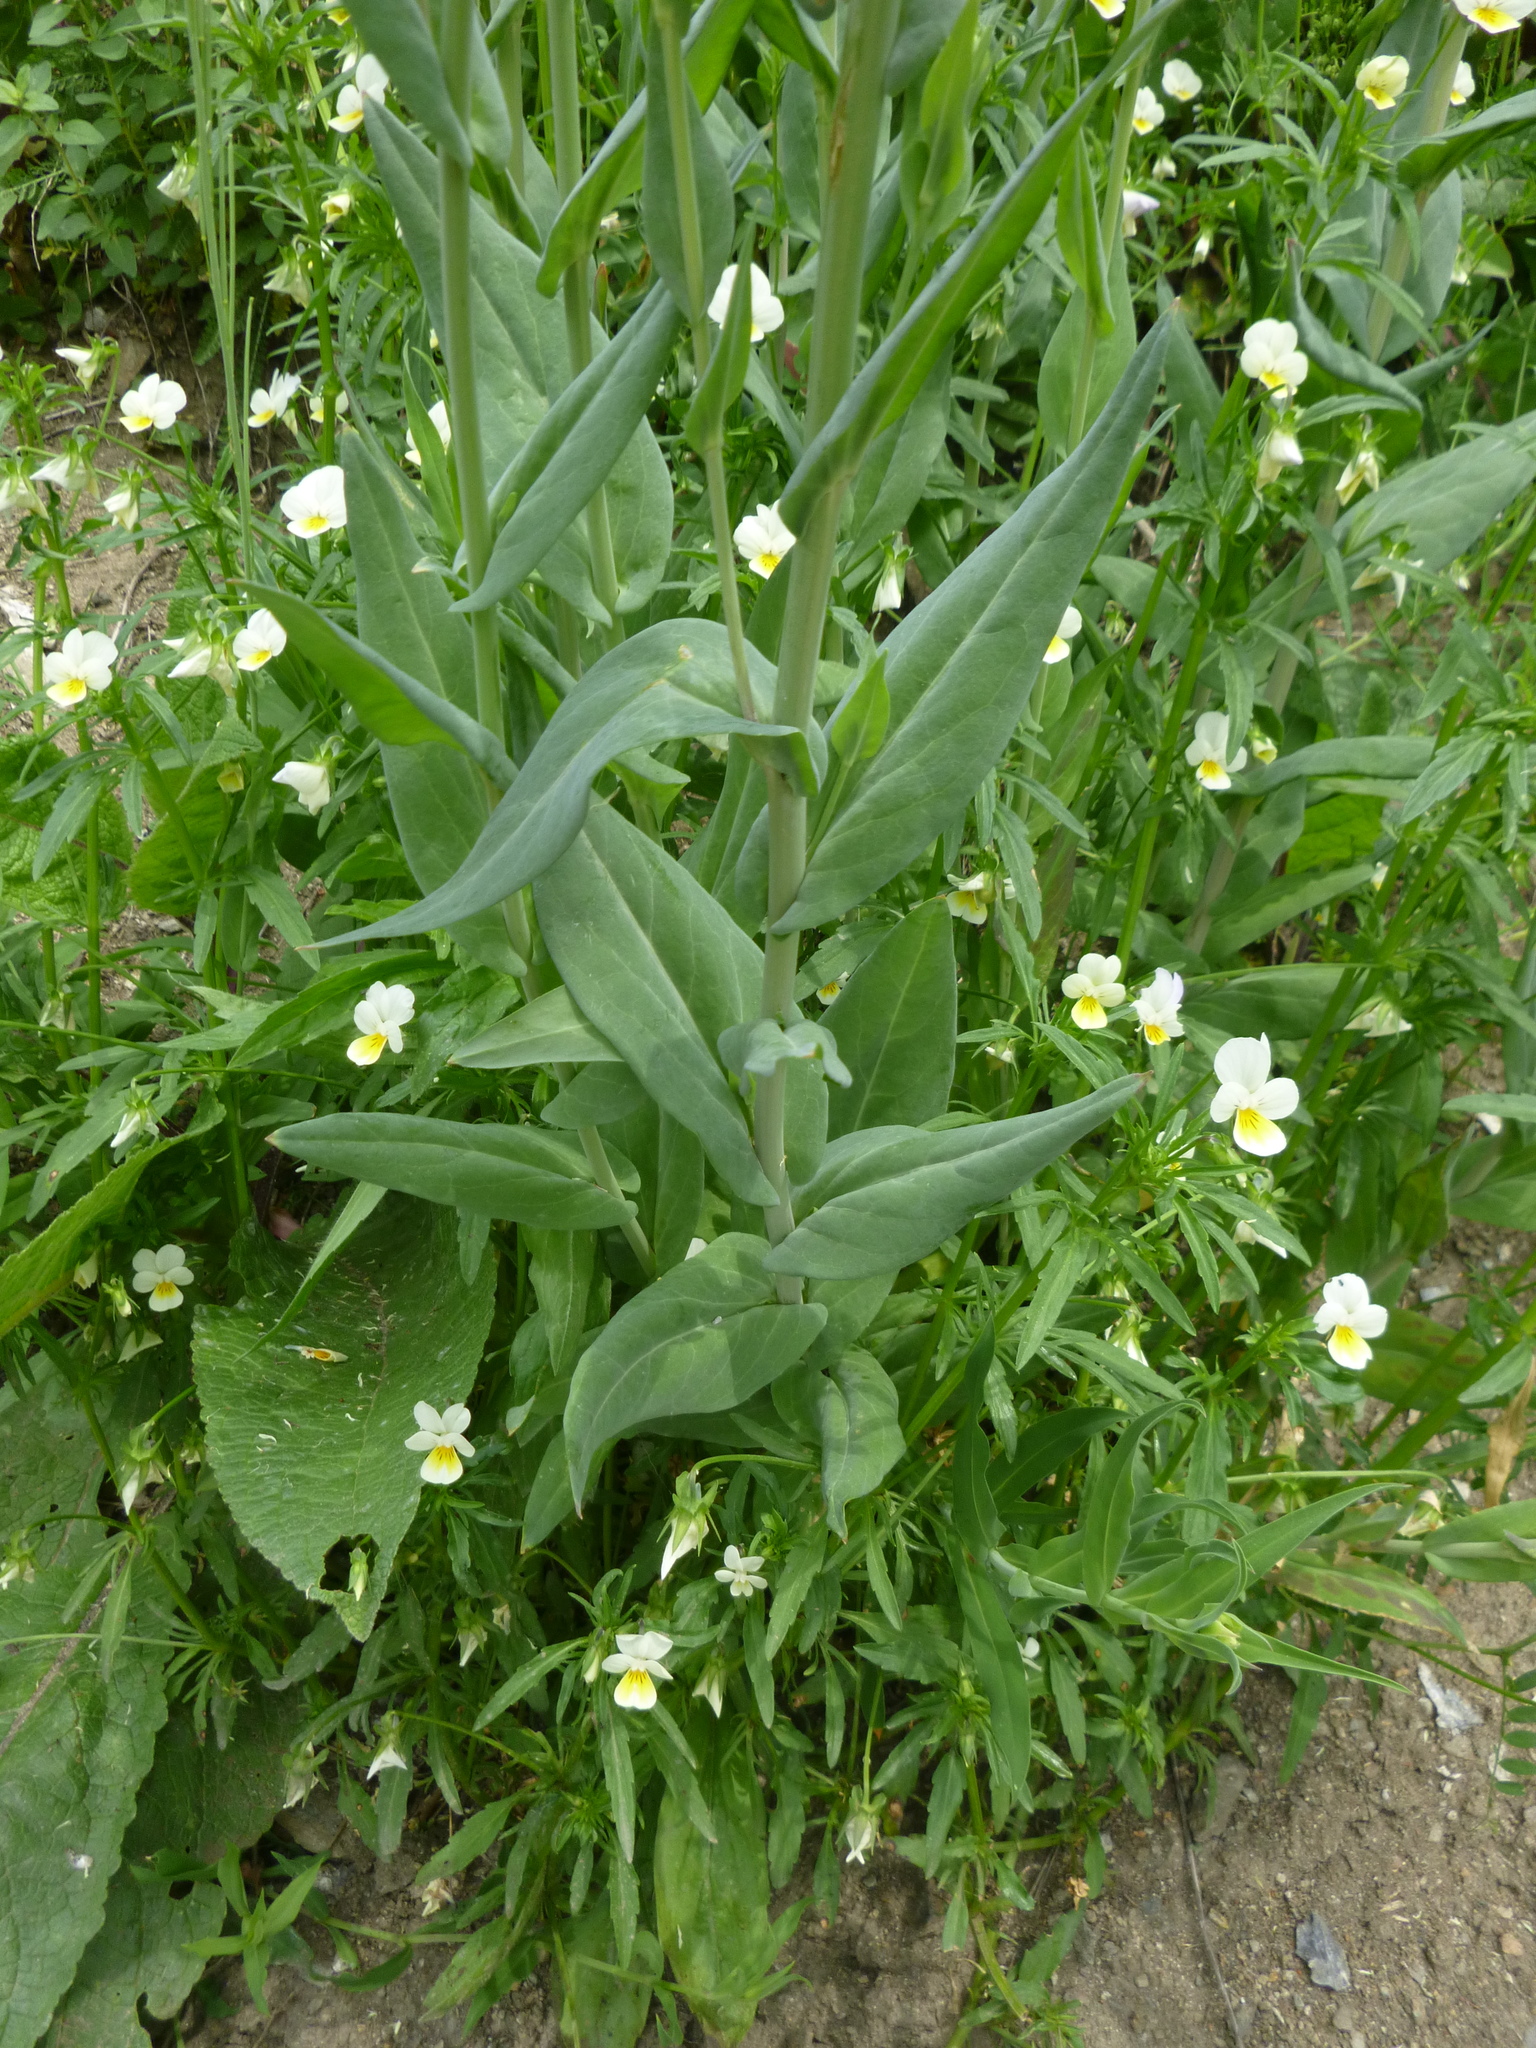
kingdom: Plantae
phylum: Tracheophyta
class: Magnoliopsida
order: Brassicales
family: Brassicaceae
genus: Turritis
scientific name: Turritis glabra
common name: Tower rockcress
